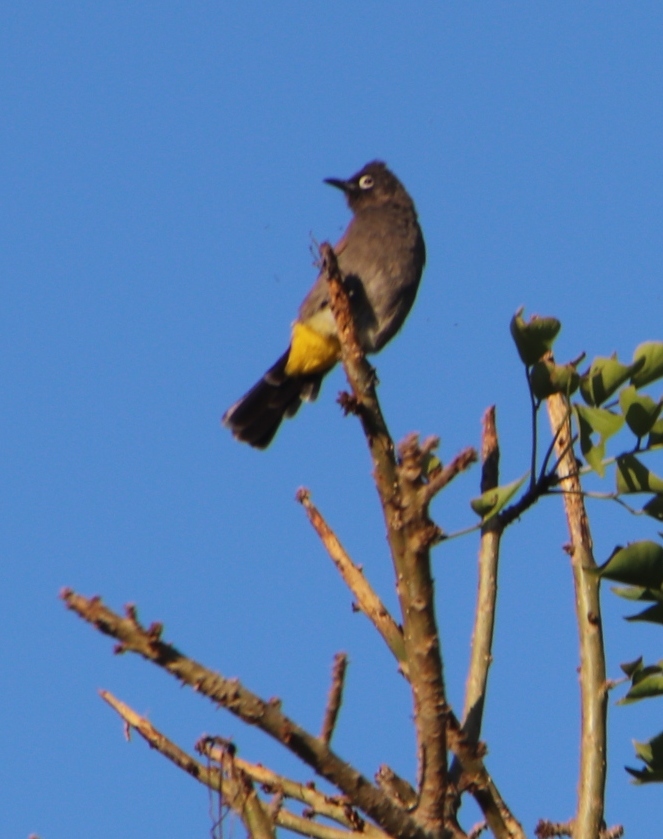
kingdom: Animalia
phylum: Chordata
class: Aves
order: Passeriformes
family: Pycnonotidae
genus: Pycnonotus
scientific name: Pycnonotus capensis
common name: Cape bulbul
